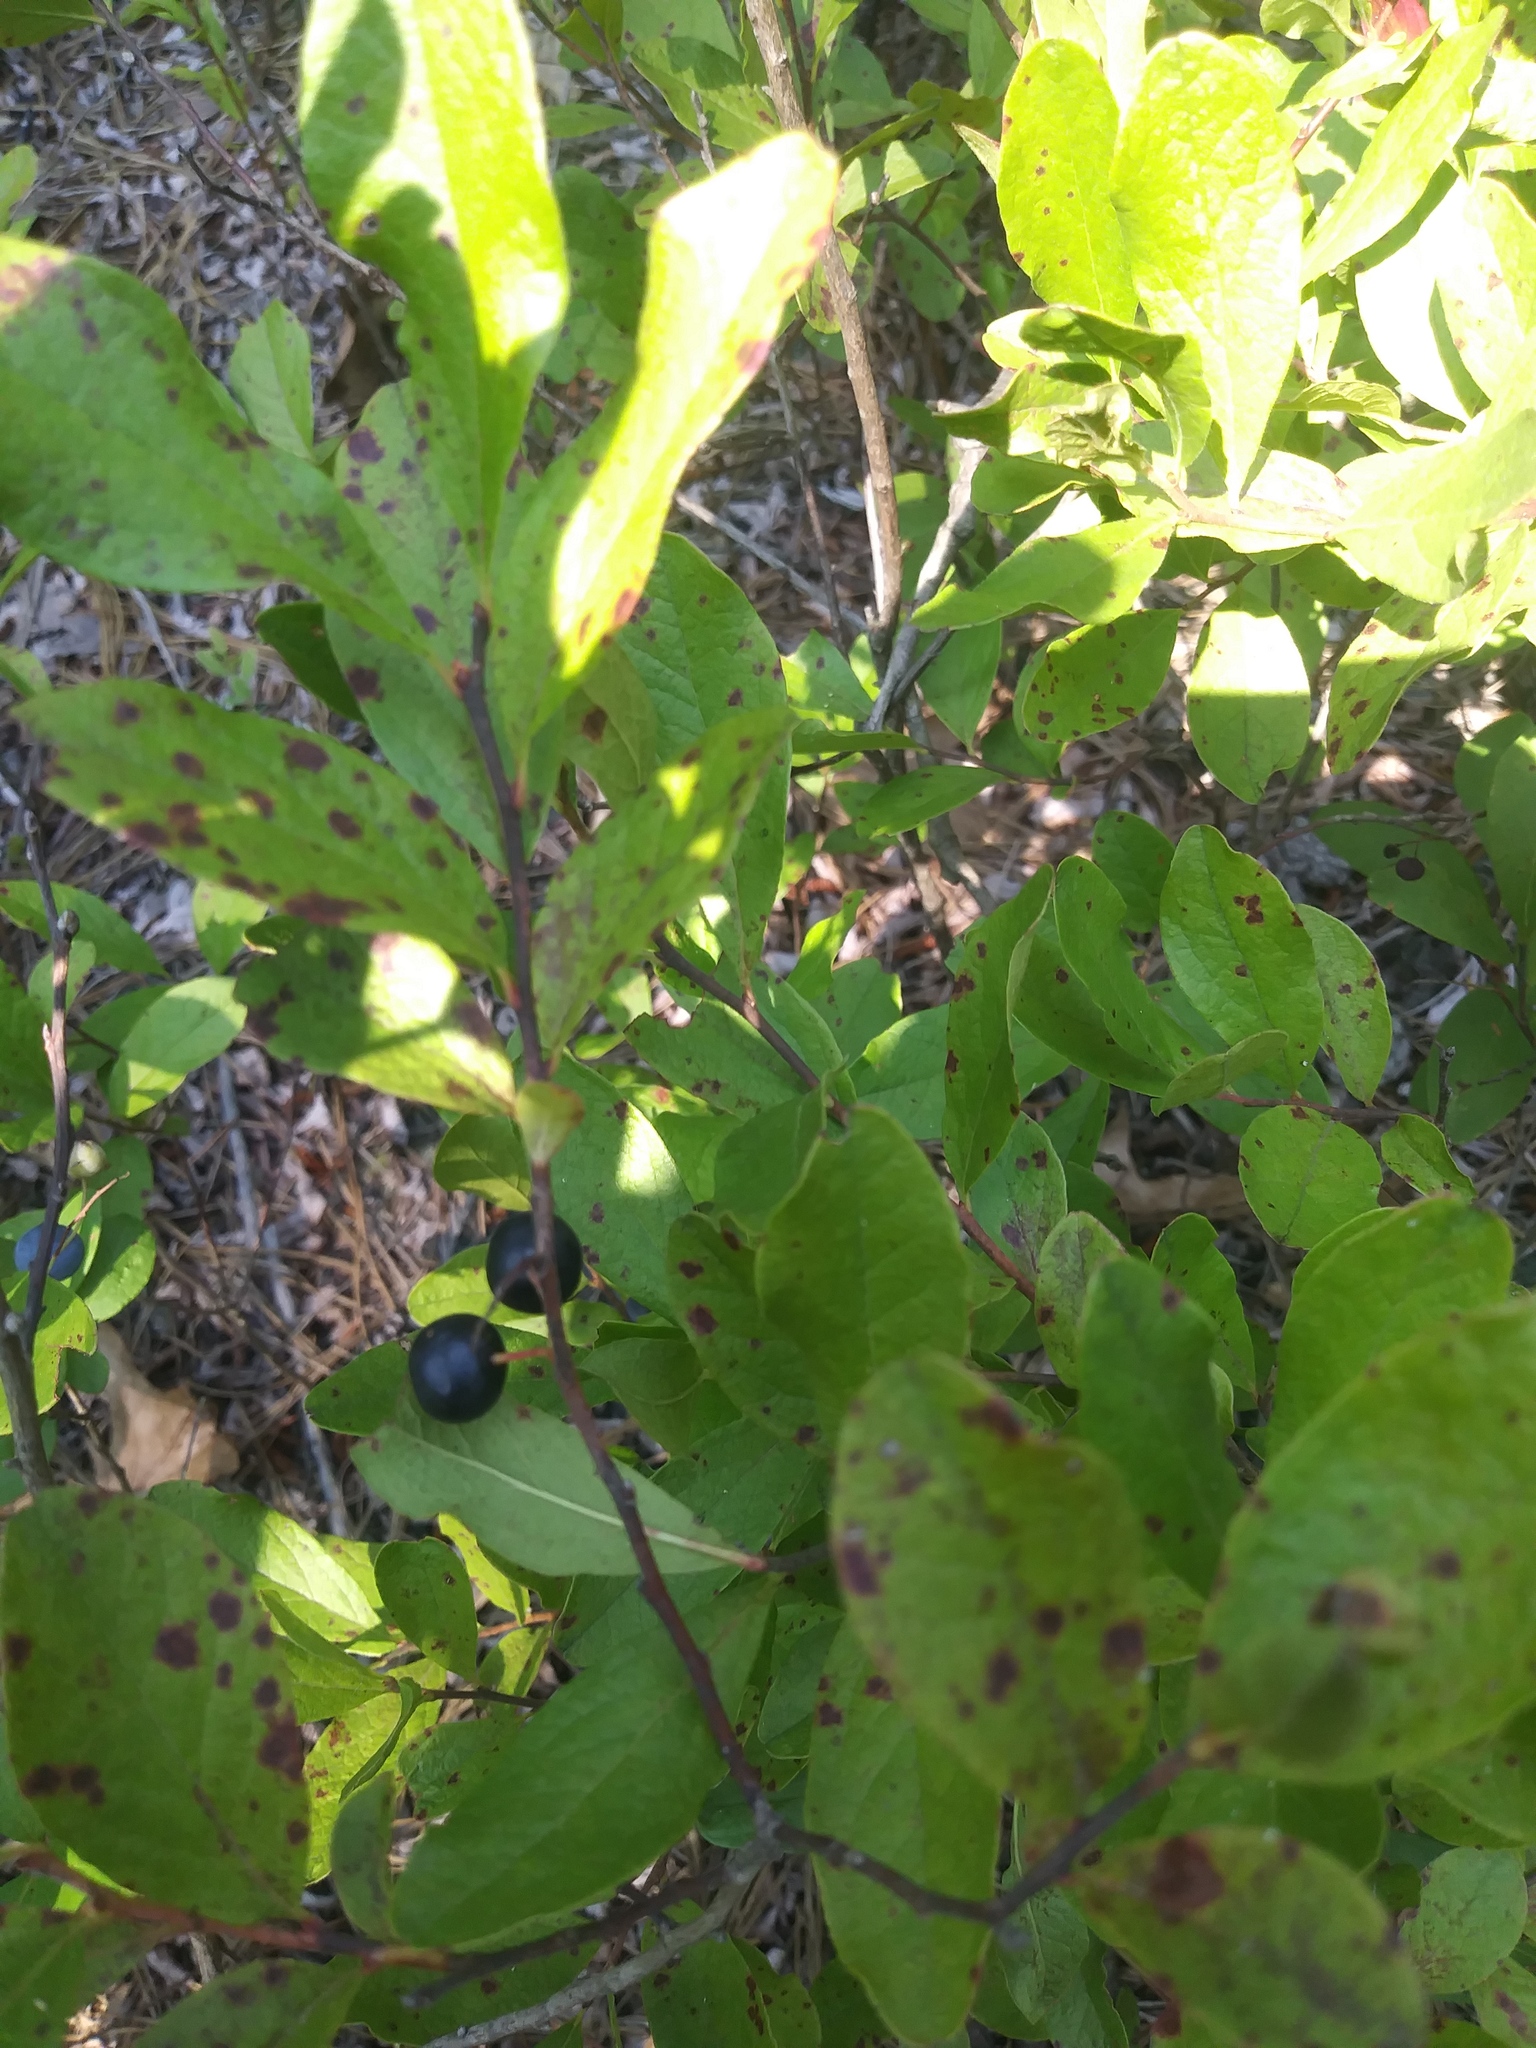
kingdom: Plantae
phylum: Tracheophyta
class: Magnoliopsida
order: Ericales
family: Ericaceae
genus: Gaylussacia
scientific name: Gaylussacia baccata
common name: Black huckleberry
